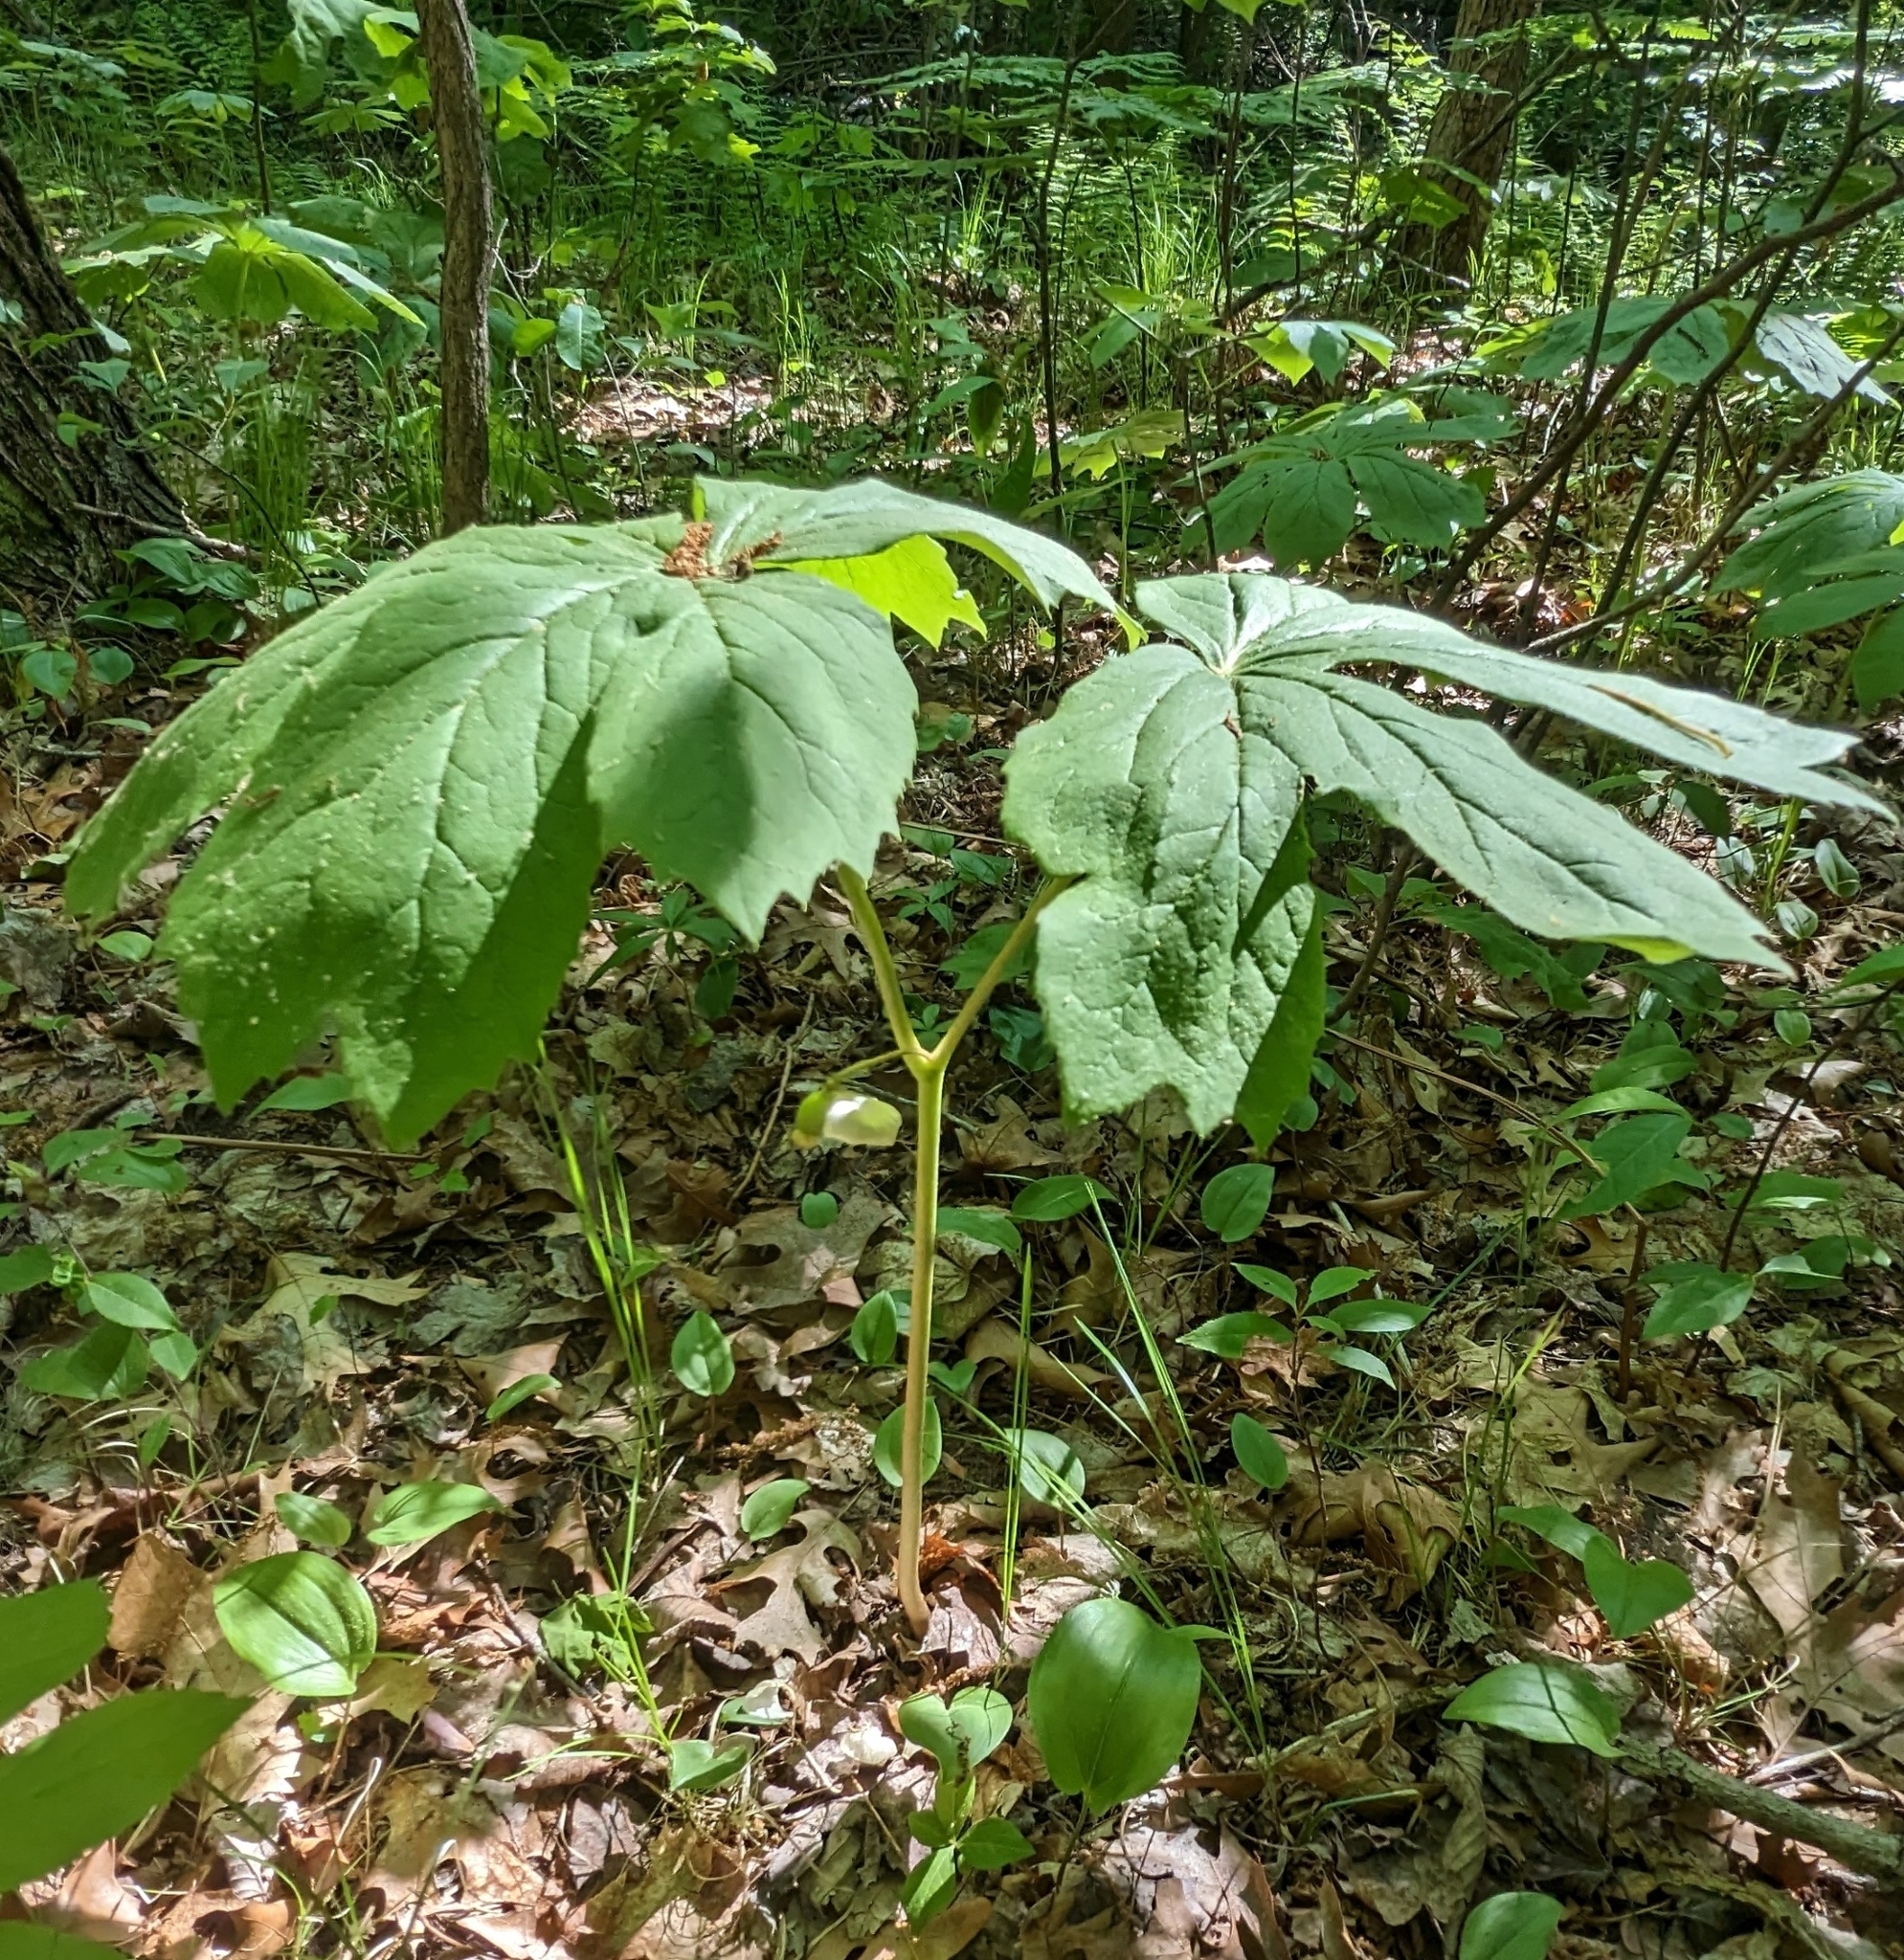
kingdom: Plantae
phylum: Tracheophyta
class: Magnoliopsida
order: Ranunculales
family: Berberidaceae
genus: Podophyllum
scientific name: Podophyllum peltatum
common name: Wild mandrake
